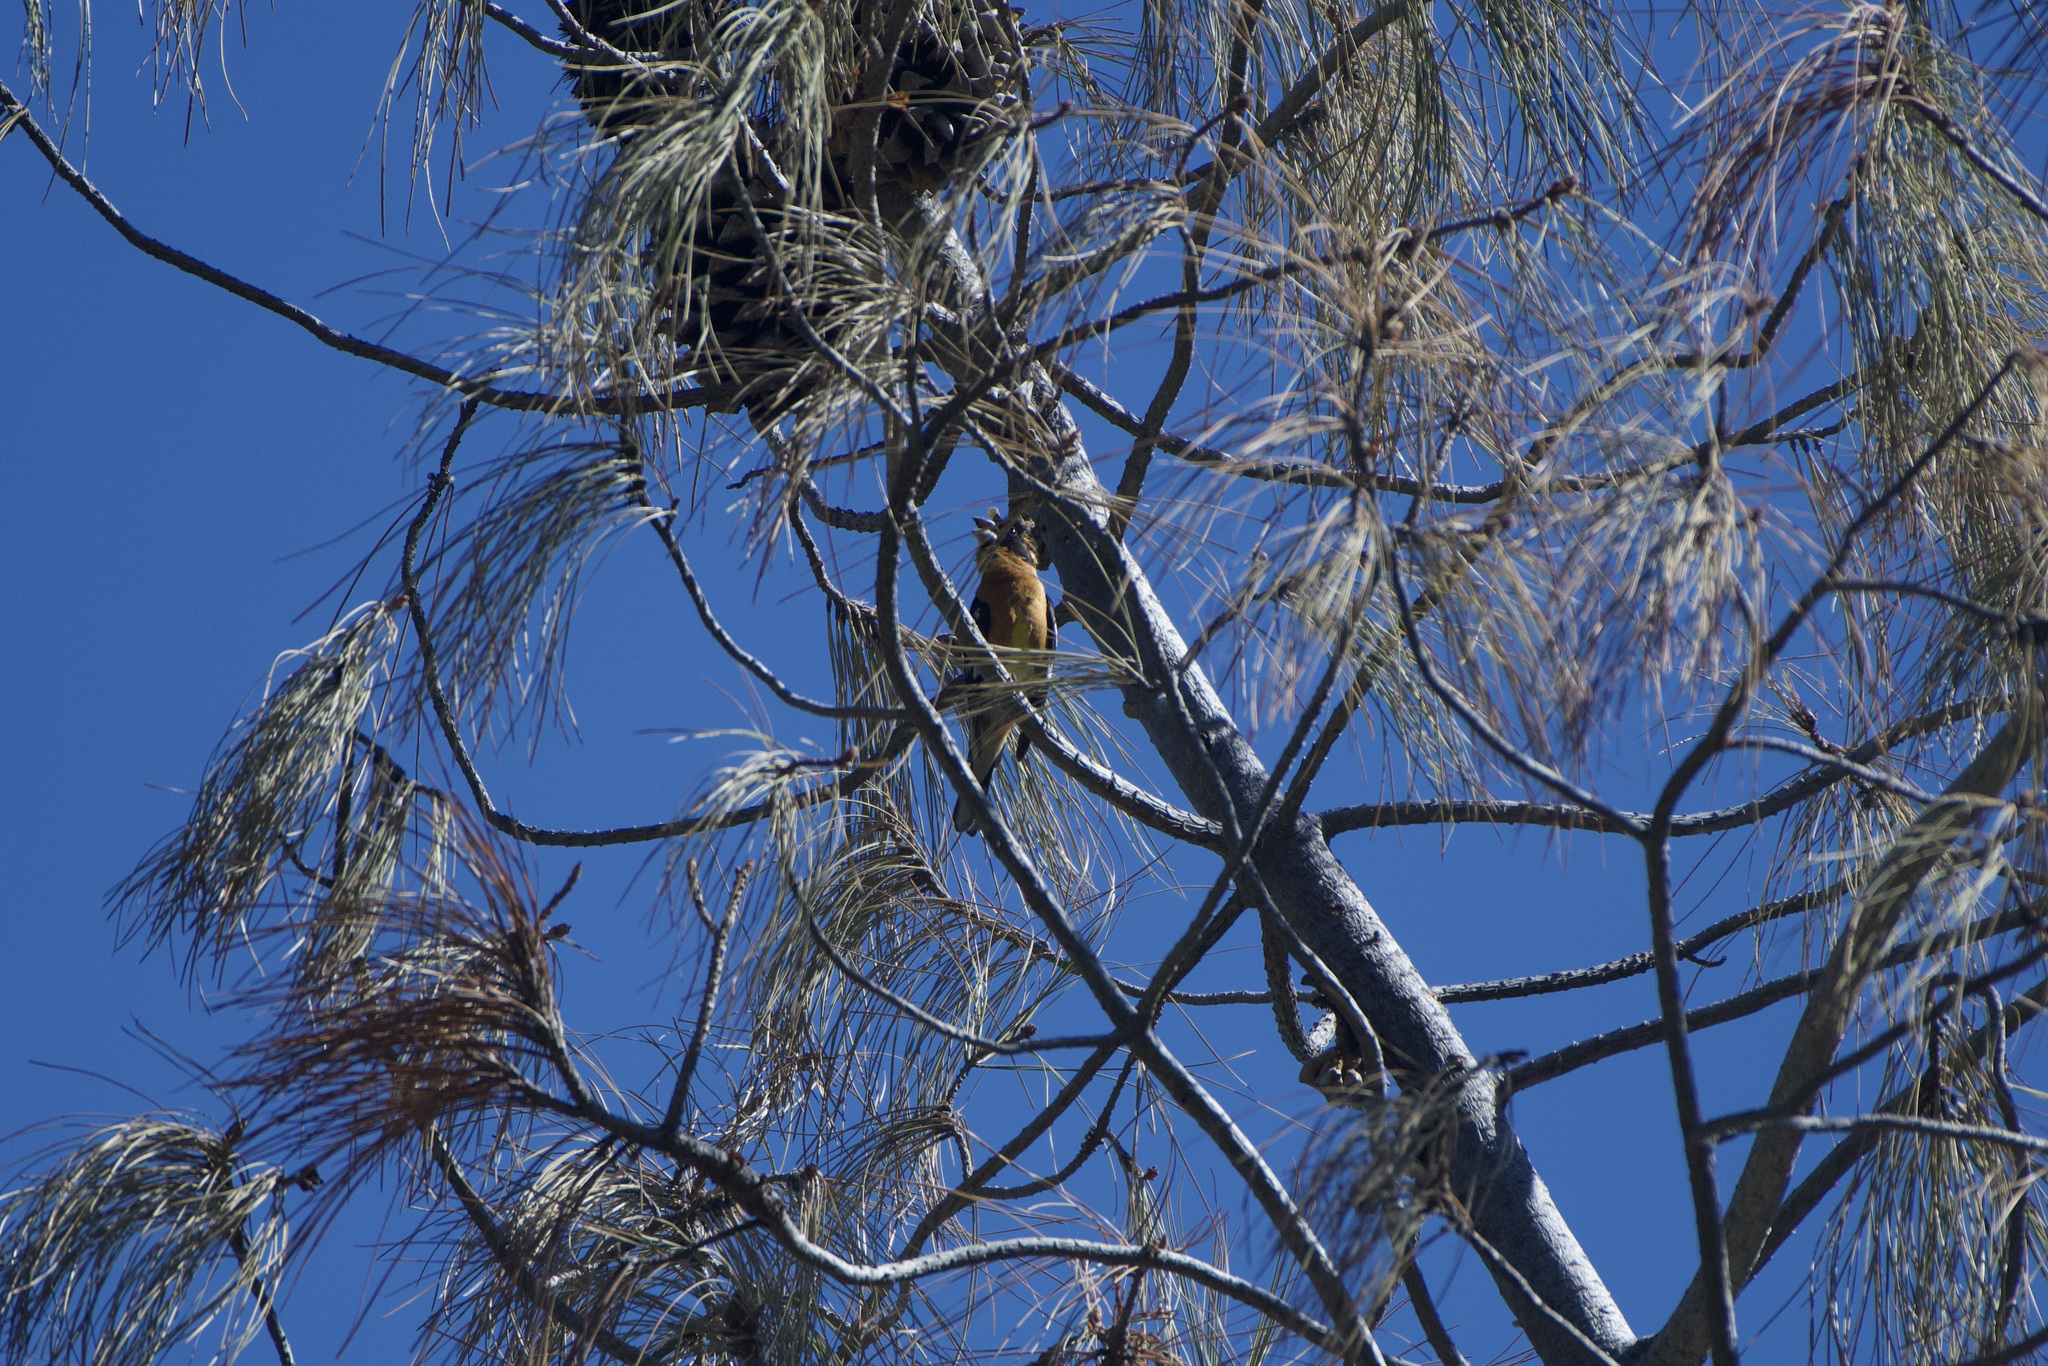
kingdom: Animalia
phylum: Chordata
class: Aves
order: Passeriformes
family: Cardinalidae
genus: Pheucticus
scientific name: Pheucticus melanocephalus
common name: Black-headed grosbeak
